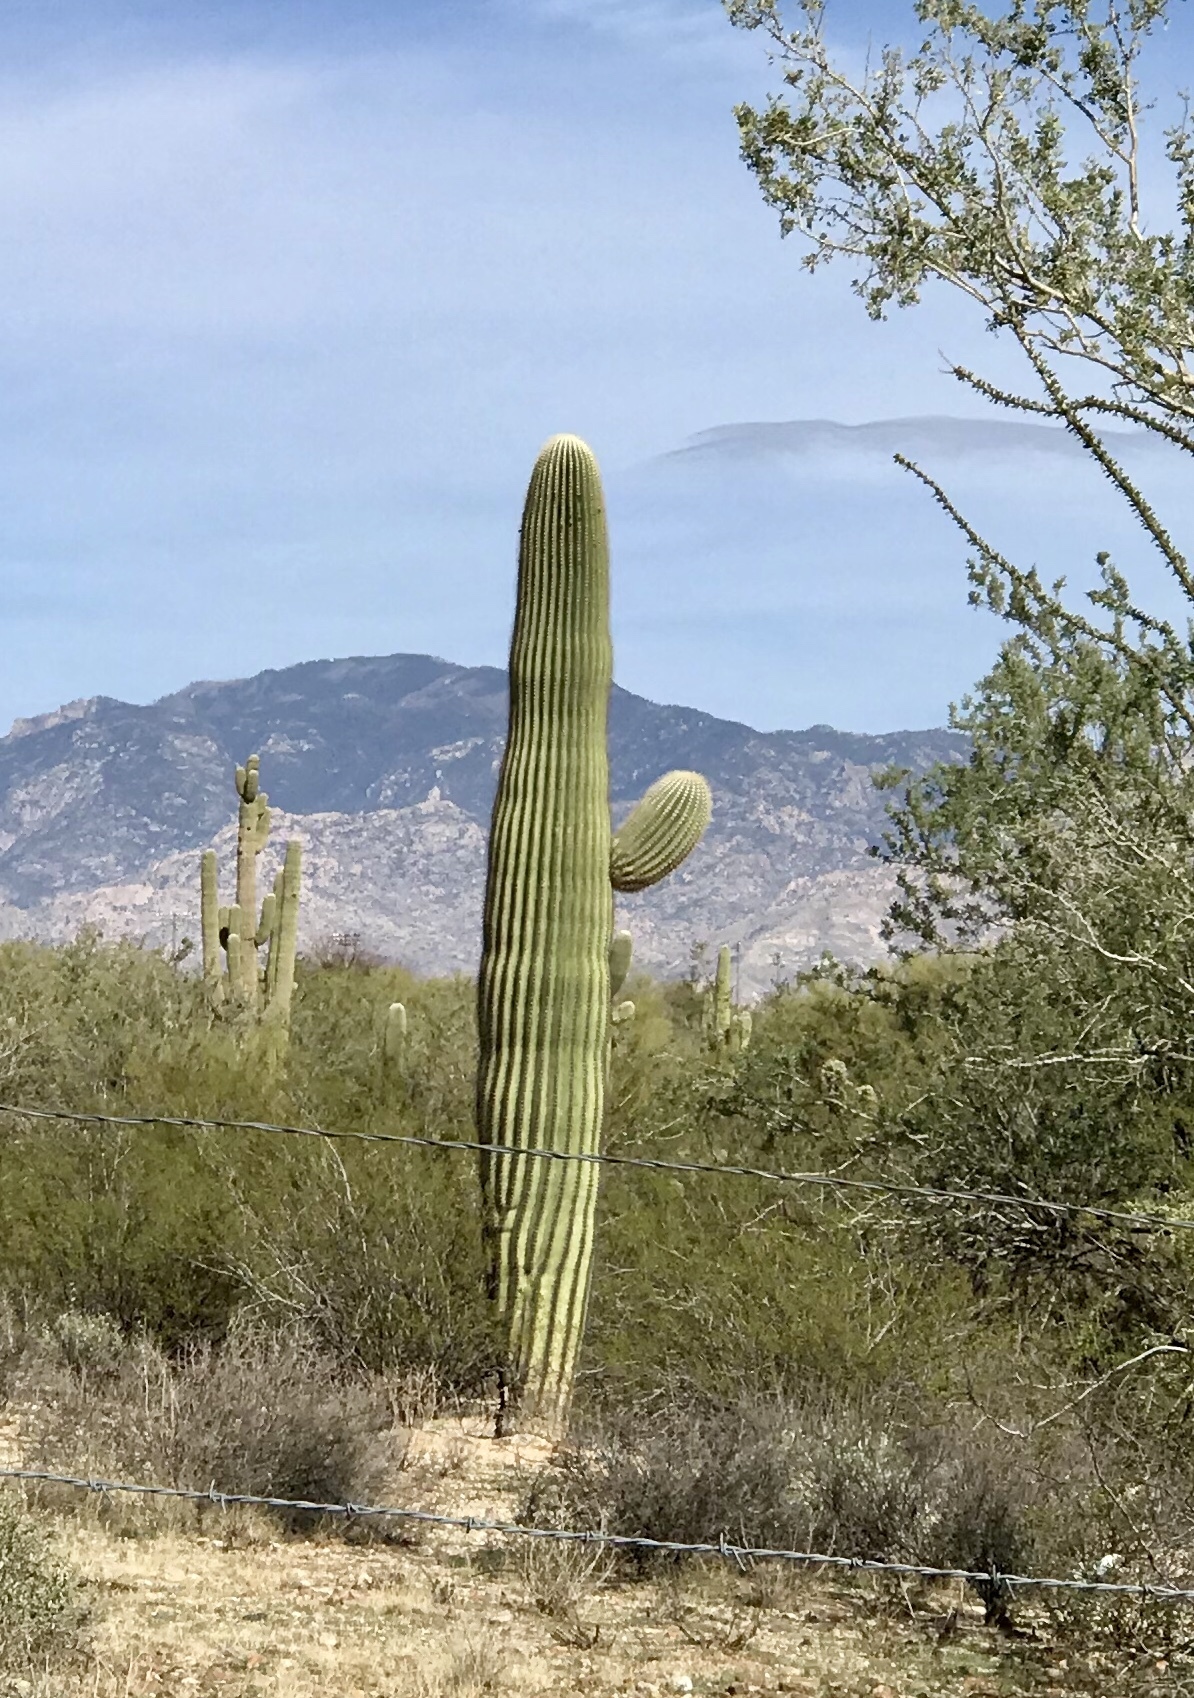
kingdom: Plantae
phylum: Tracheophyta
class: Magnoliopsida
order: Caryophyllales
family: Cactaceae
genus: Carnegiea
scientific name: Carnegiea gigantea
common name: Saguaro
